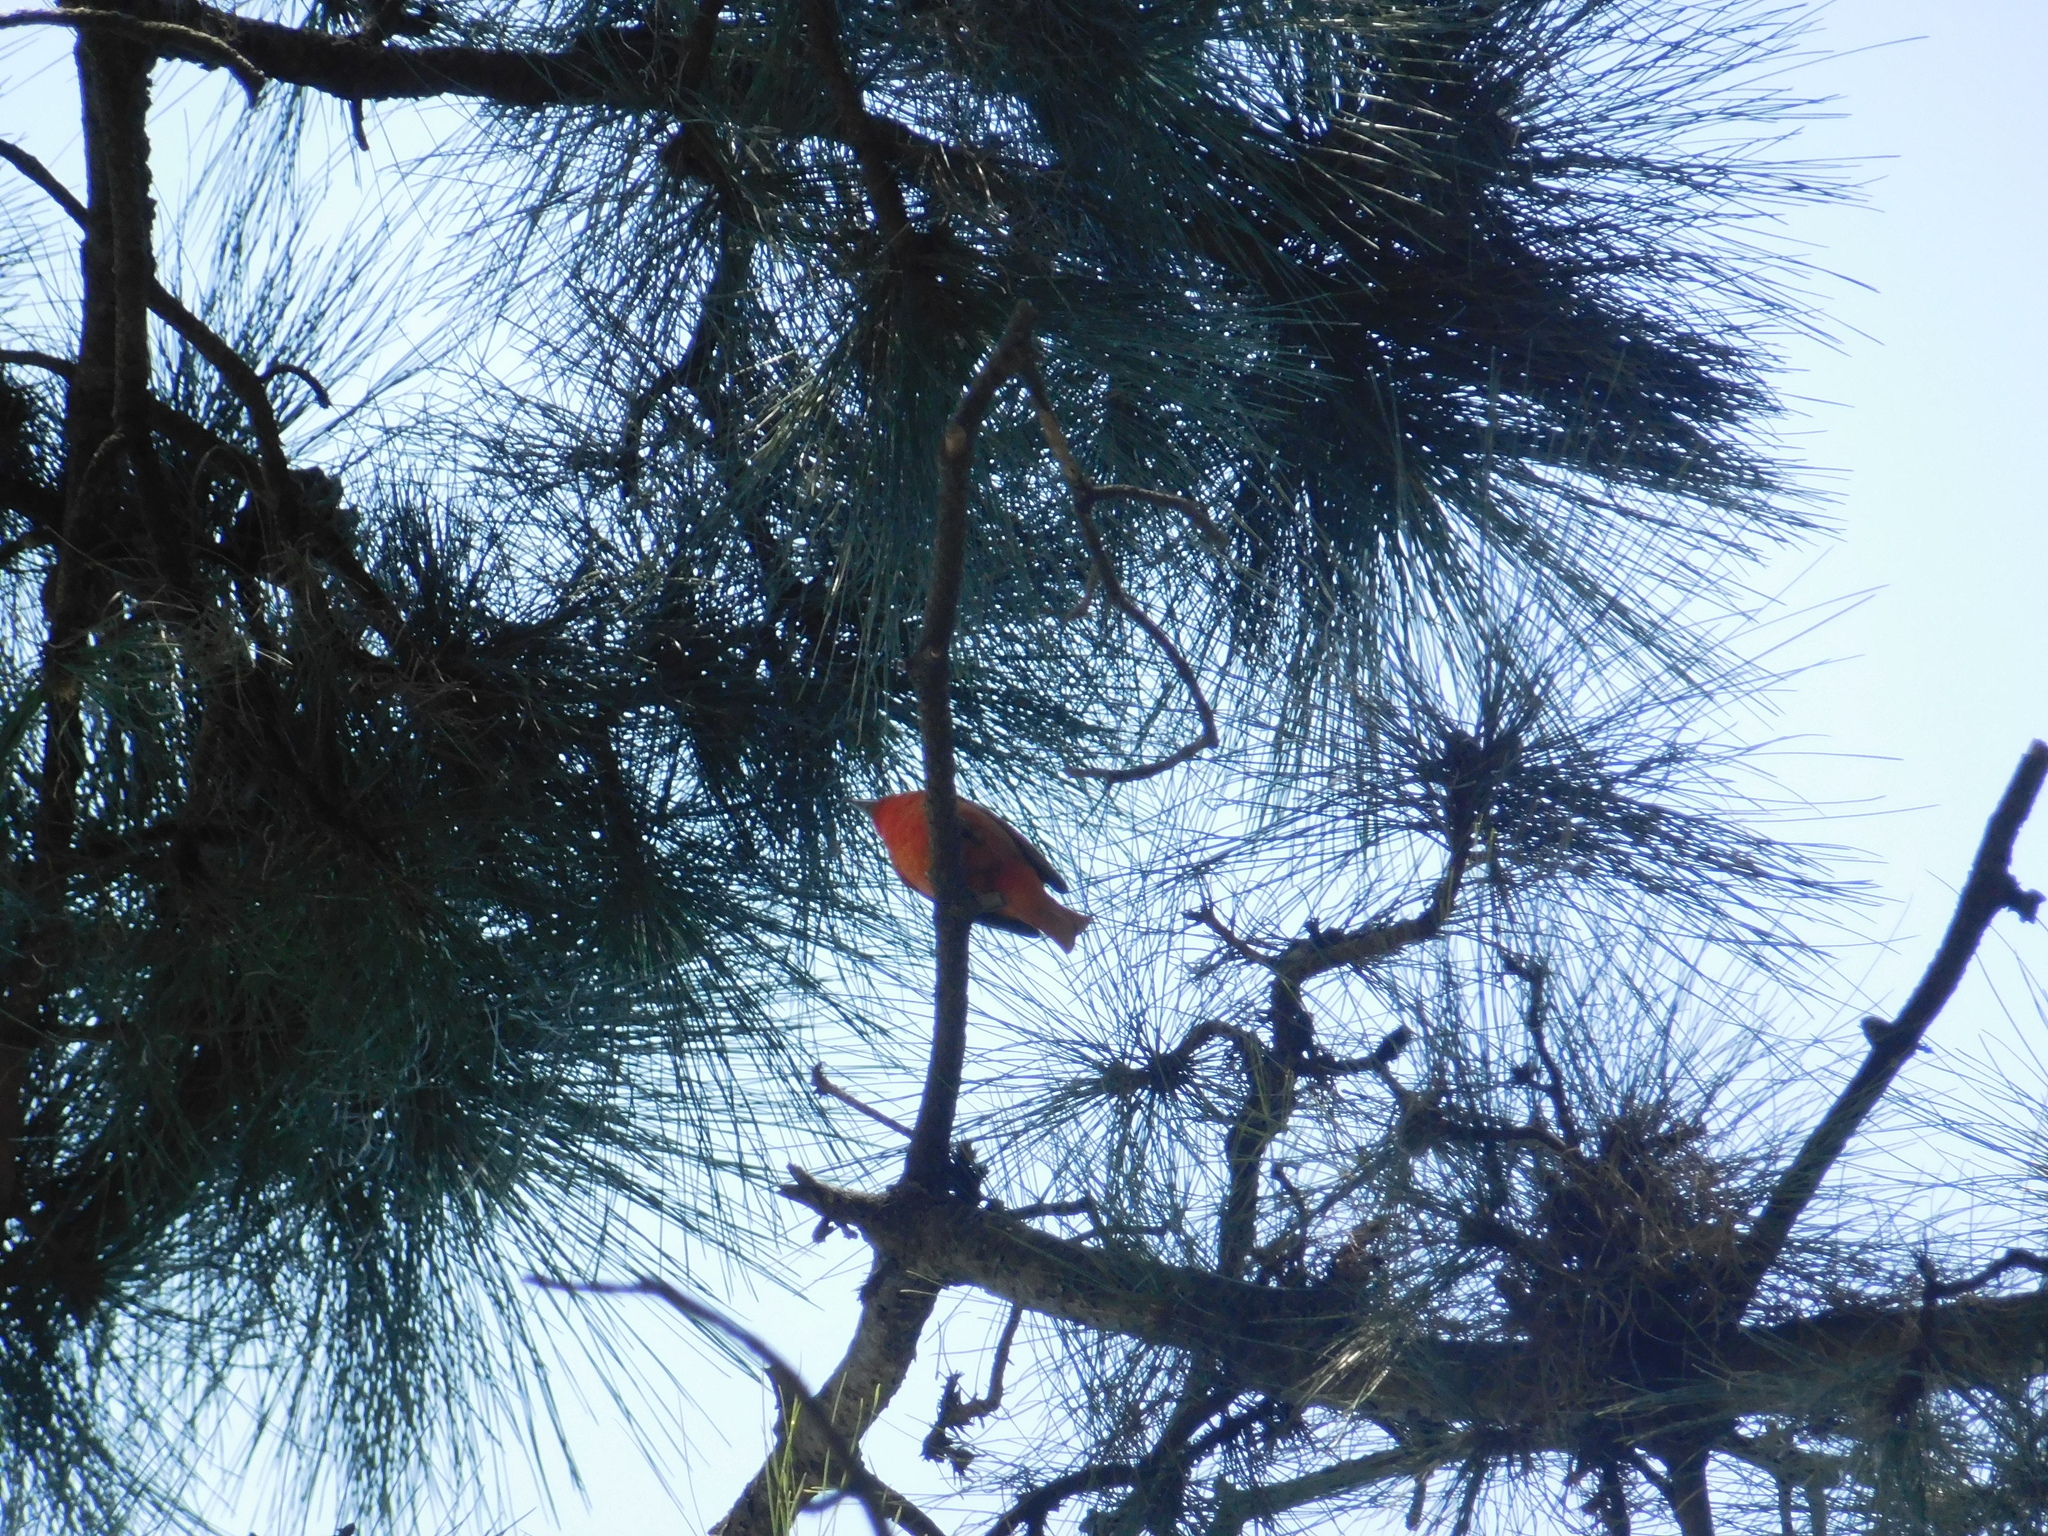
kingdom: Animalia
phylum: Chordata
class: Aves
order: Passeriformes
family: Cardinalidae
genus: Piranga
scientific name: Piranga flava
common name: Red tanager
